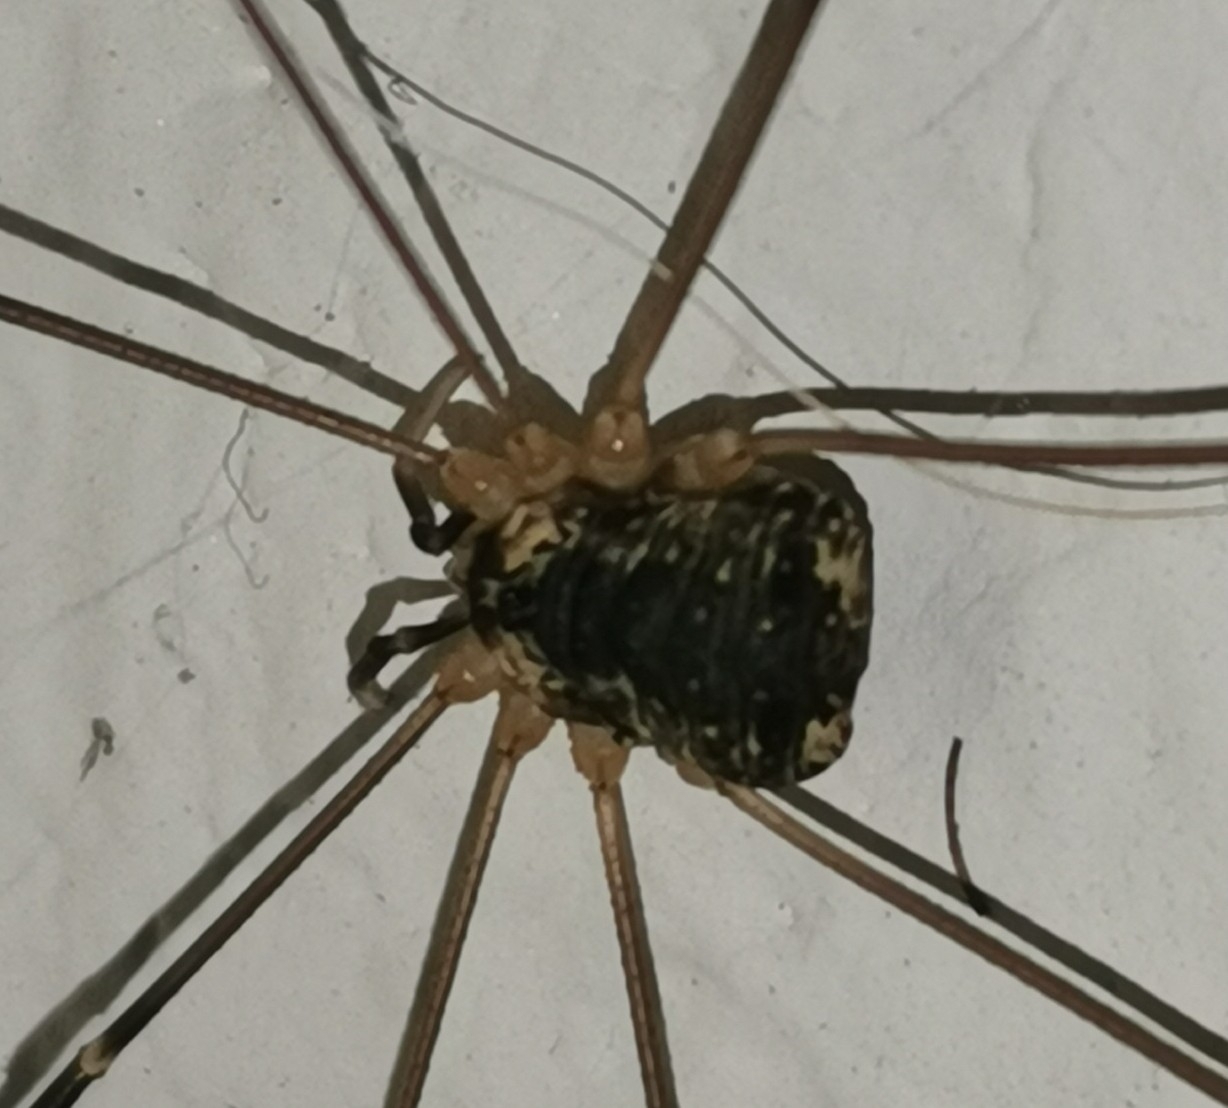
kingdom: Animalia
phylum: Arthropoda
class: Arachnida
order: Opiliones
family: Sclerosomatidae
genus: Leiobunum
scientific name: Leiobunum gracile
